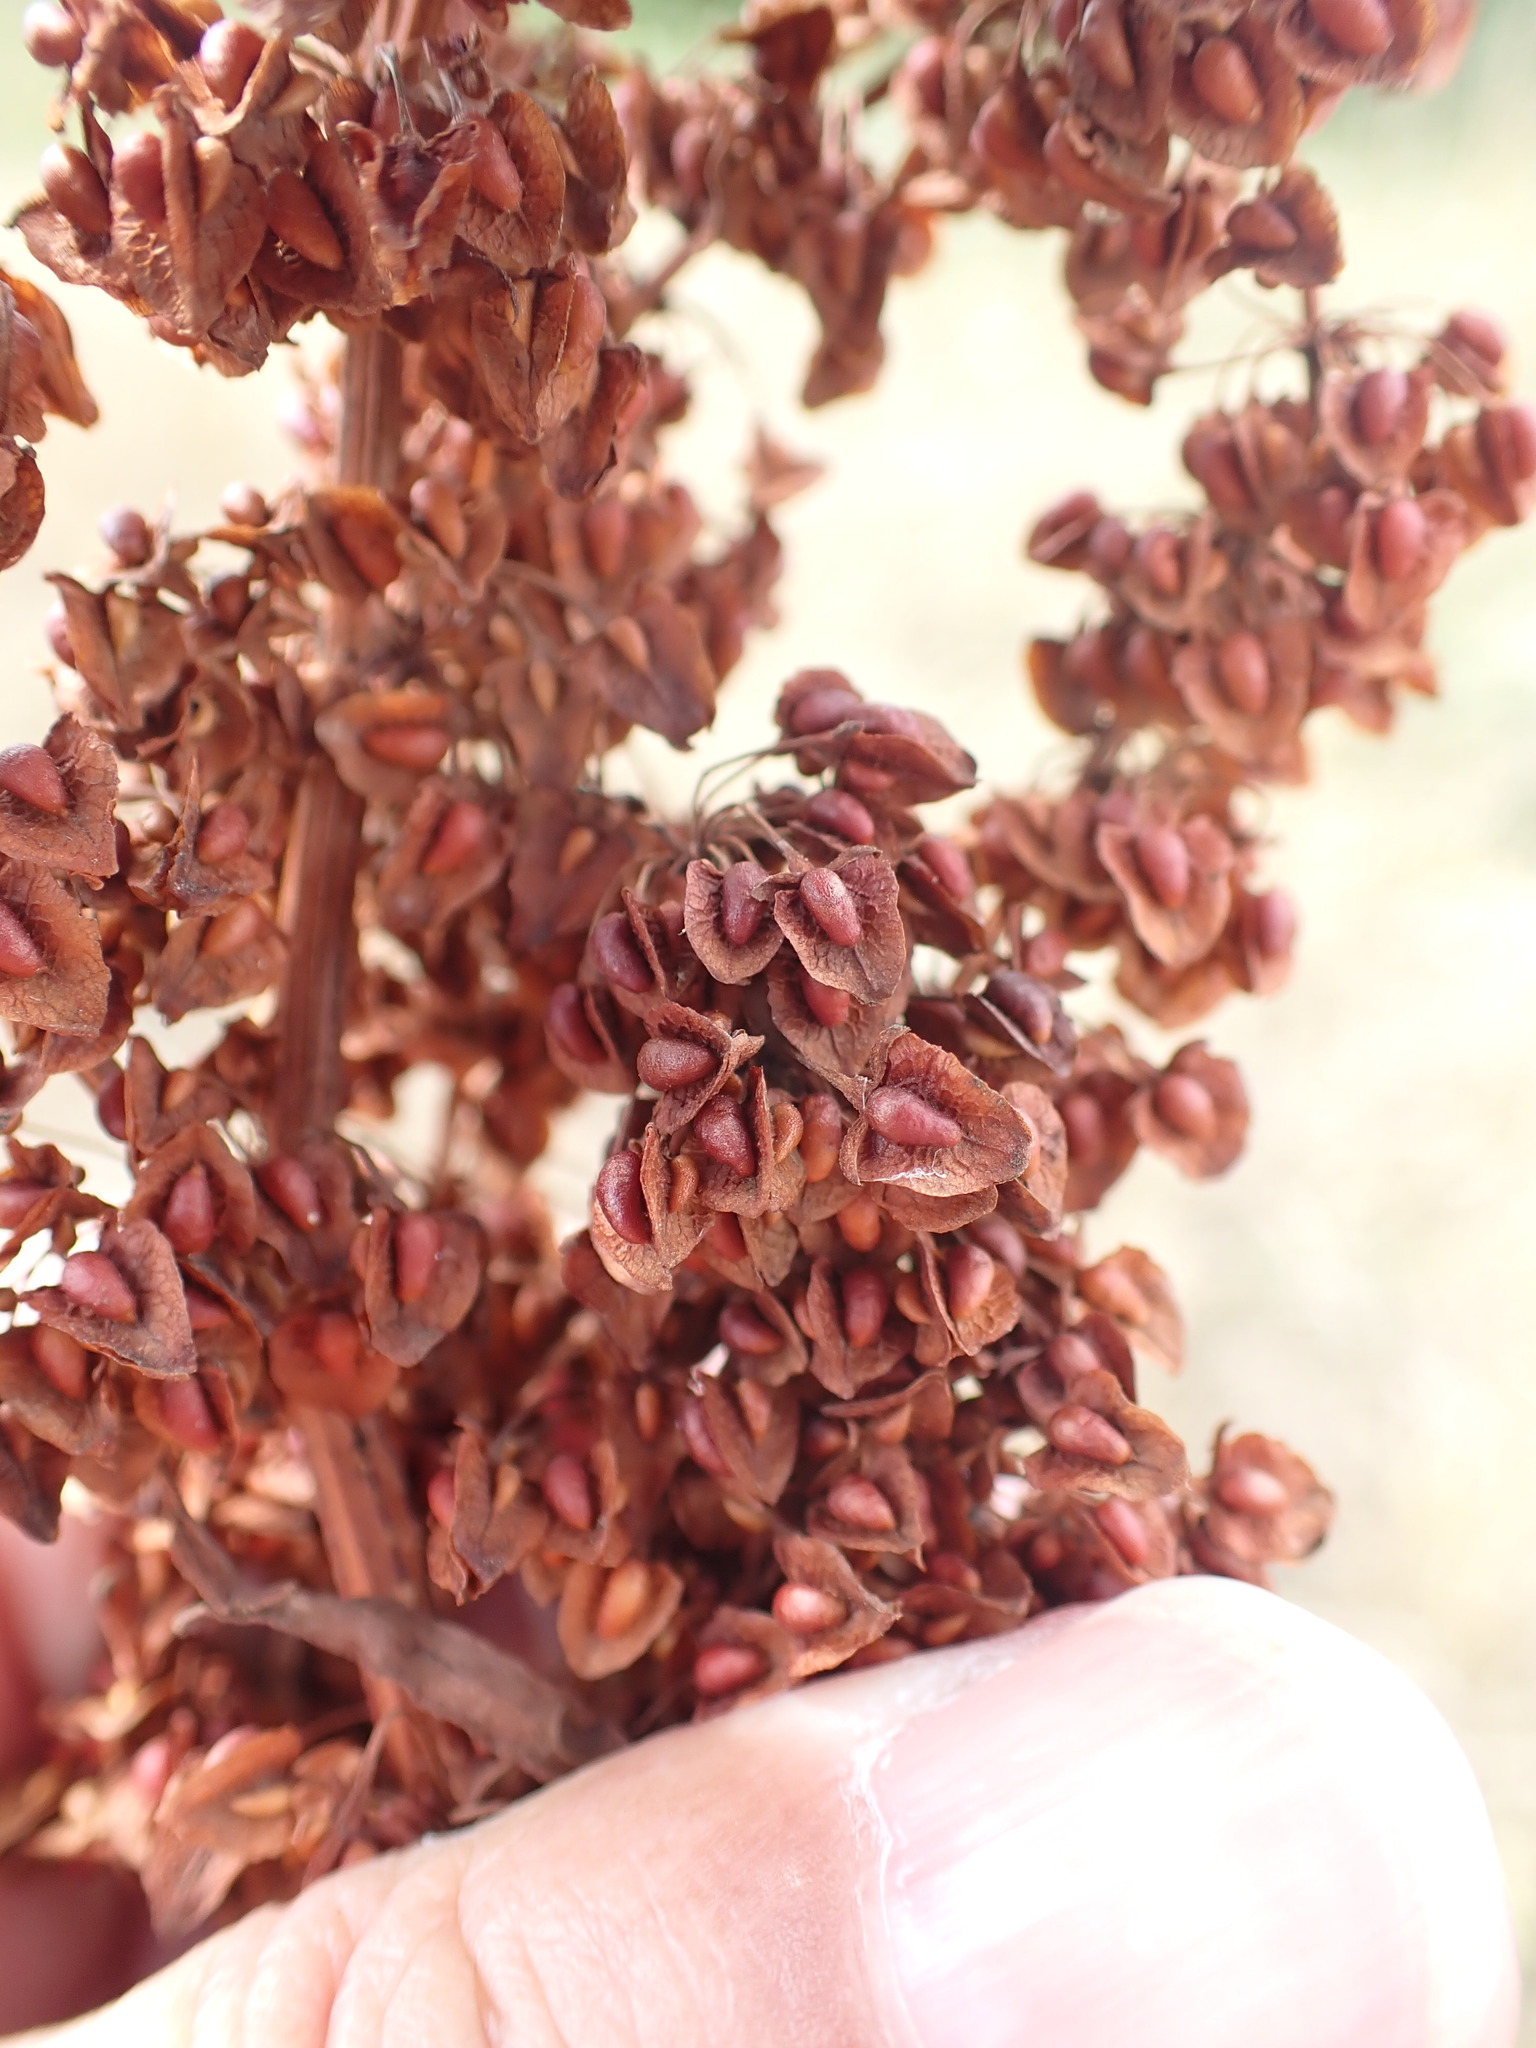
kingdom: Plantae
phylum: Tracheophyta
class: Magnoliopsida
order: Caryophyllales
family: Polygonaceae
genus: Rumex
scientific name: Rumex crispus
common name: Curled dock
